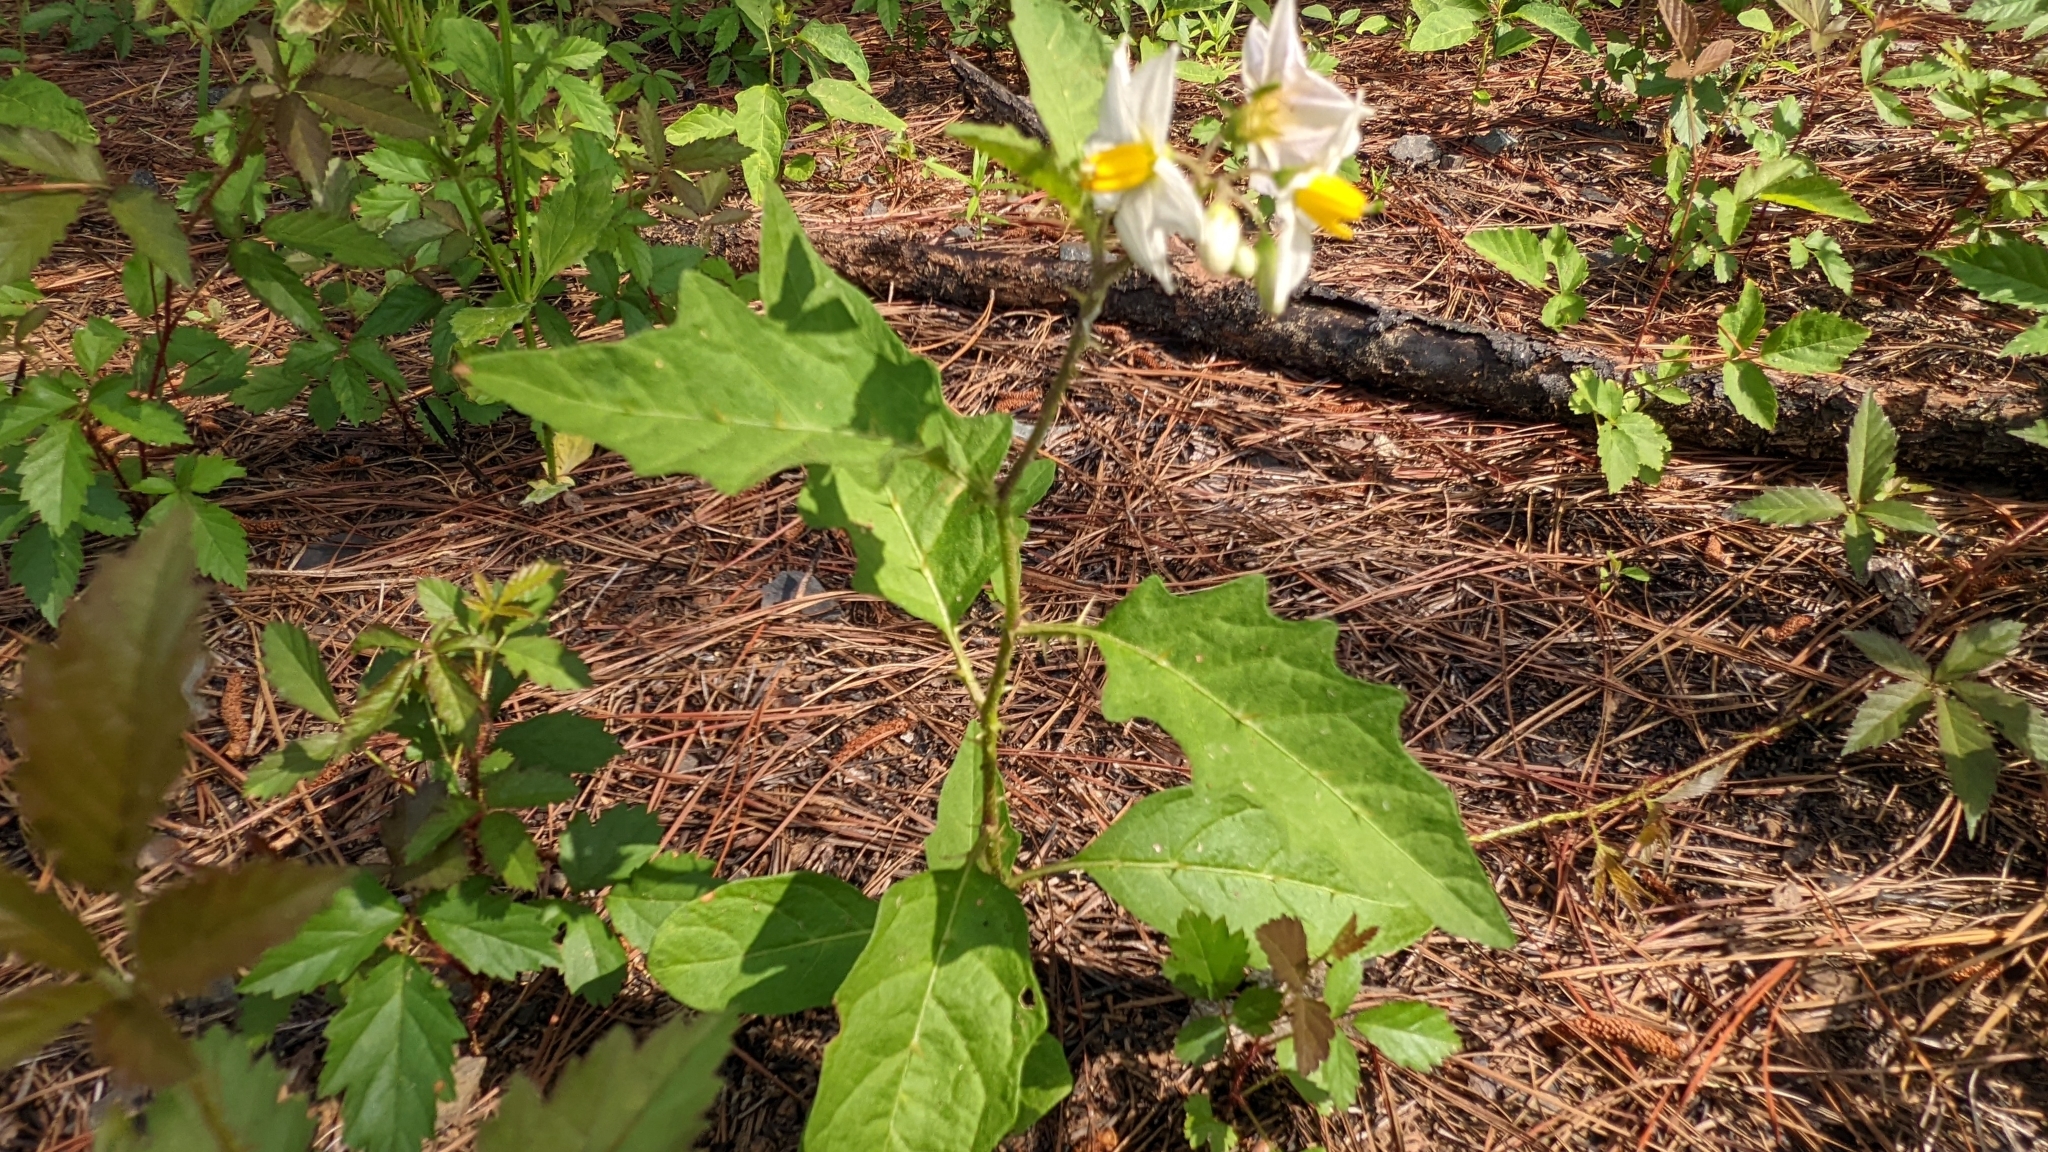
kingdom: Plantae
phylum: Tracheophyta
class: Magnoliopsida
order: Solanales
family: Solanaceae
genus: Solanum
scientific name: Solanum carolinense
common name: Horse-nettle
